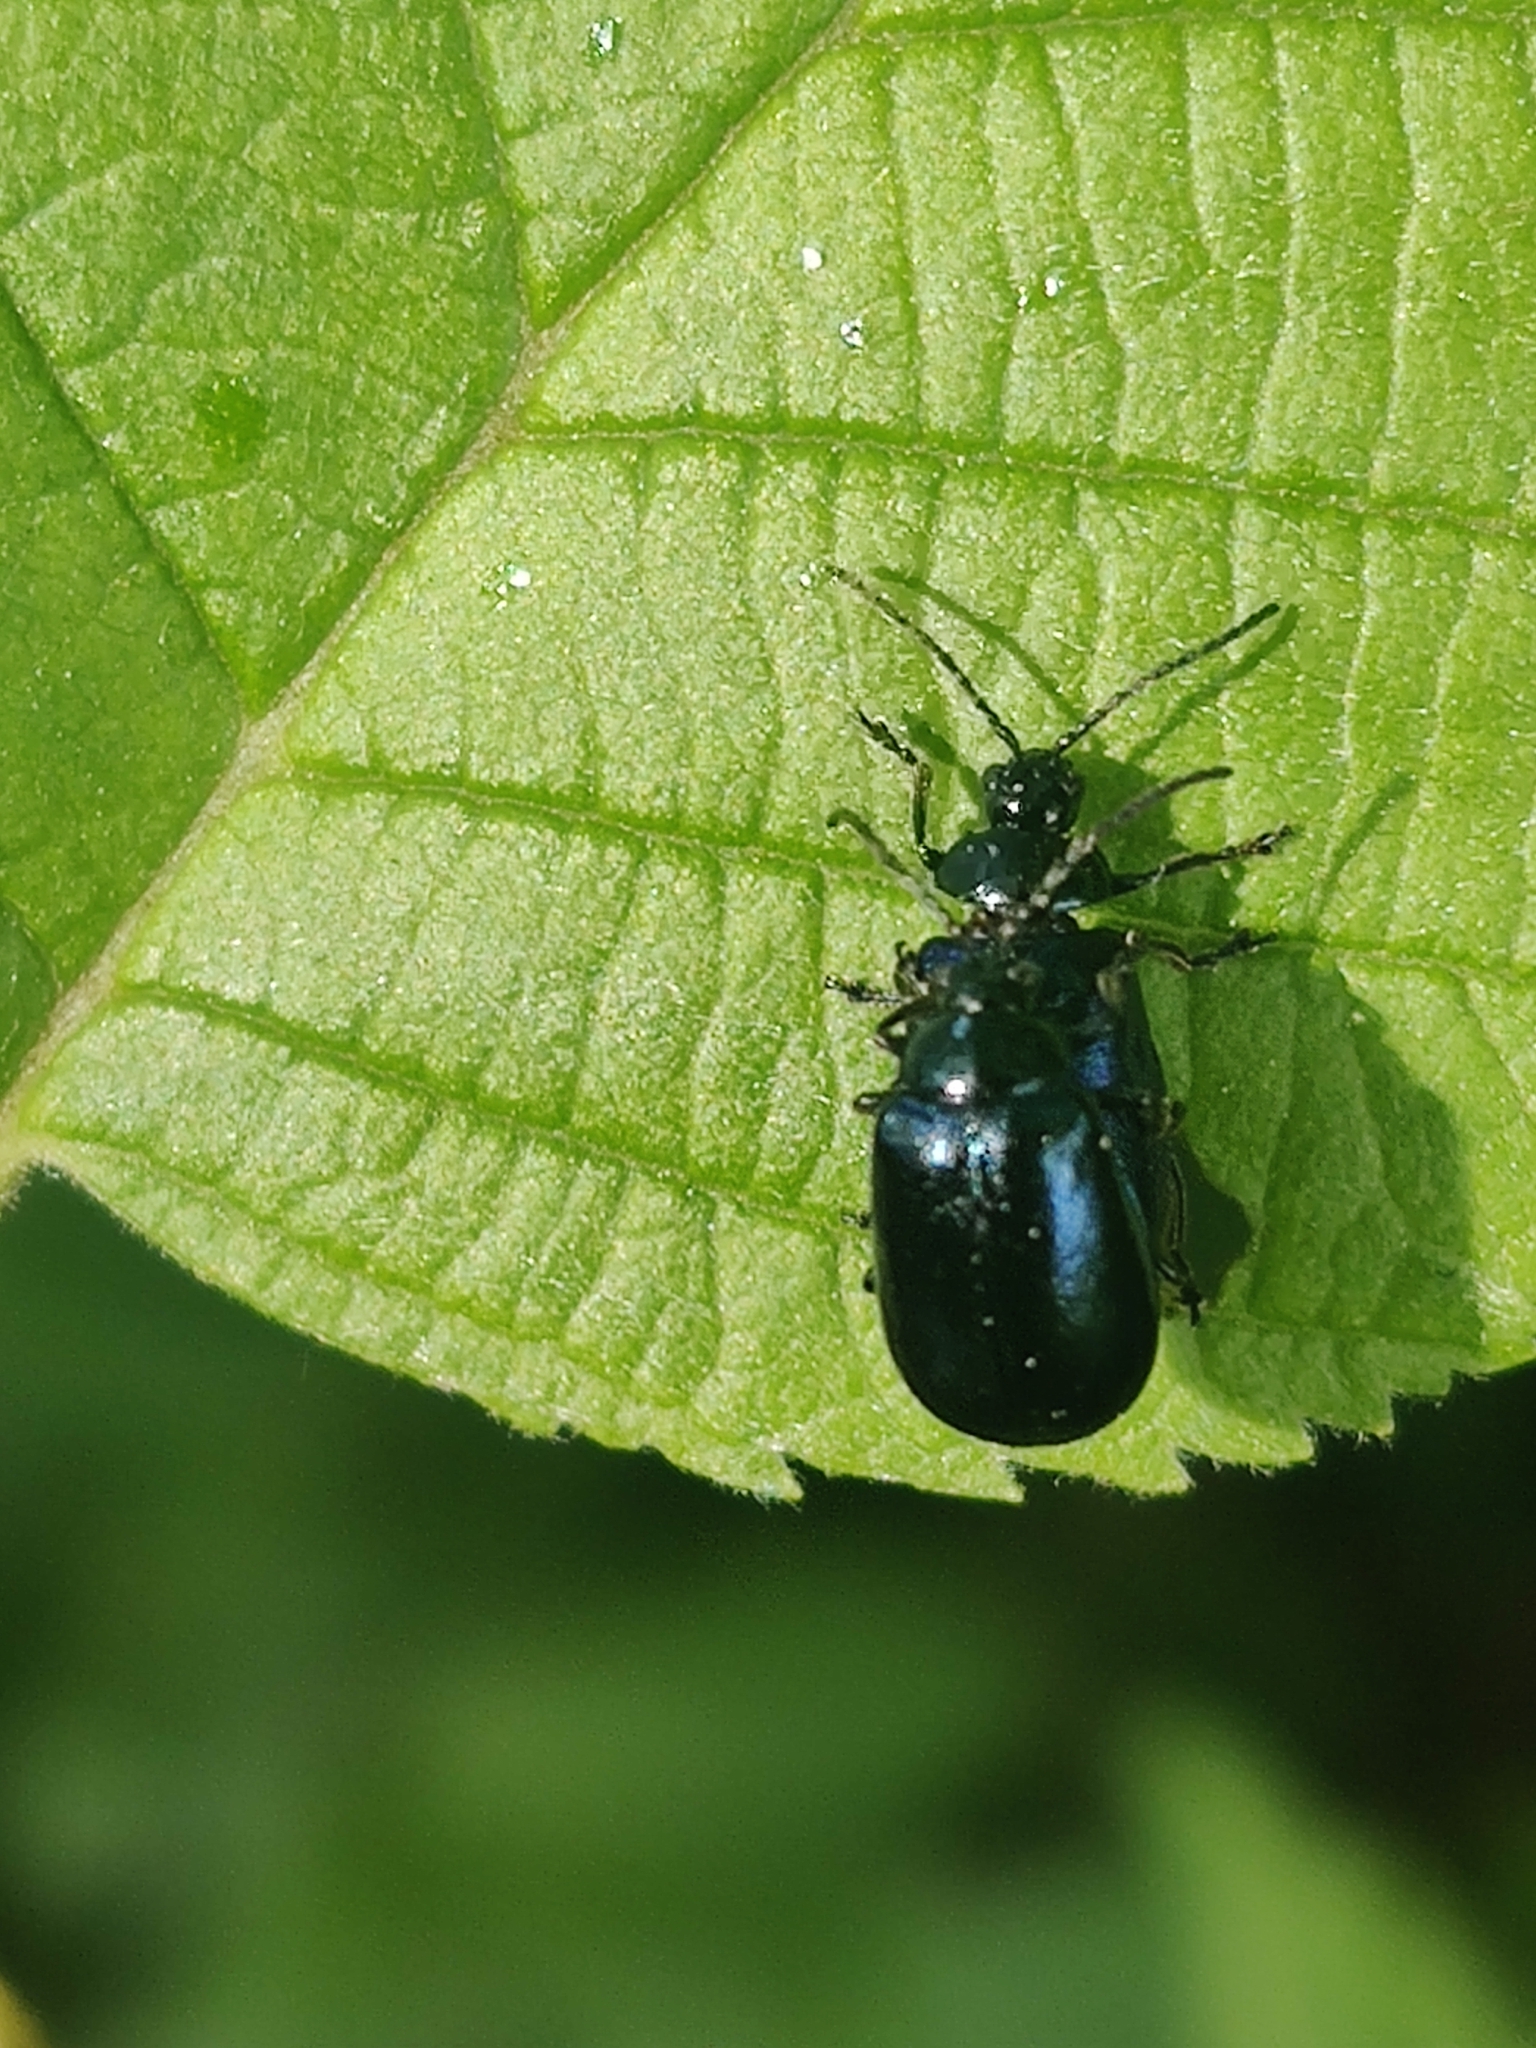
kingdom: Animalia
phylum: Arthropoda
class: Insecta
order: Coleoptera
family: Chrysomelidae
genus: Agelastica
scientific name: Agelastica alni
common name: Alder leaf beetle
